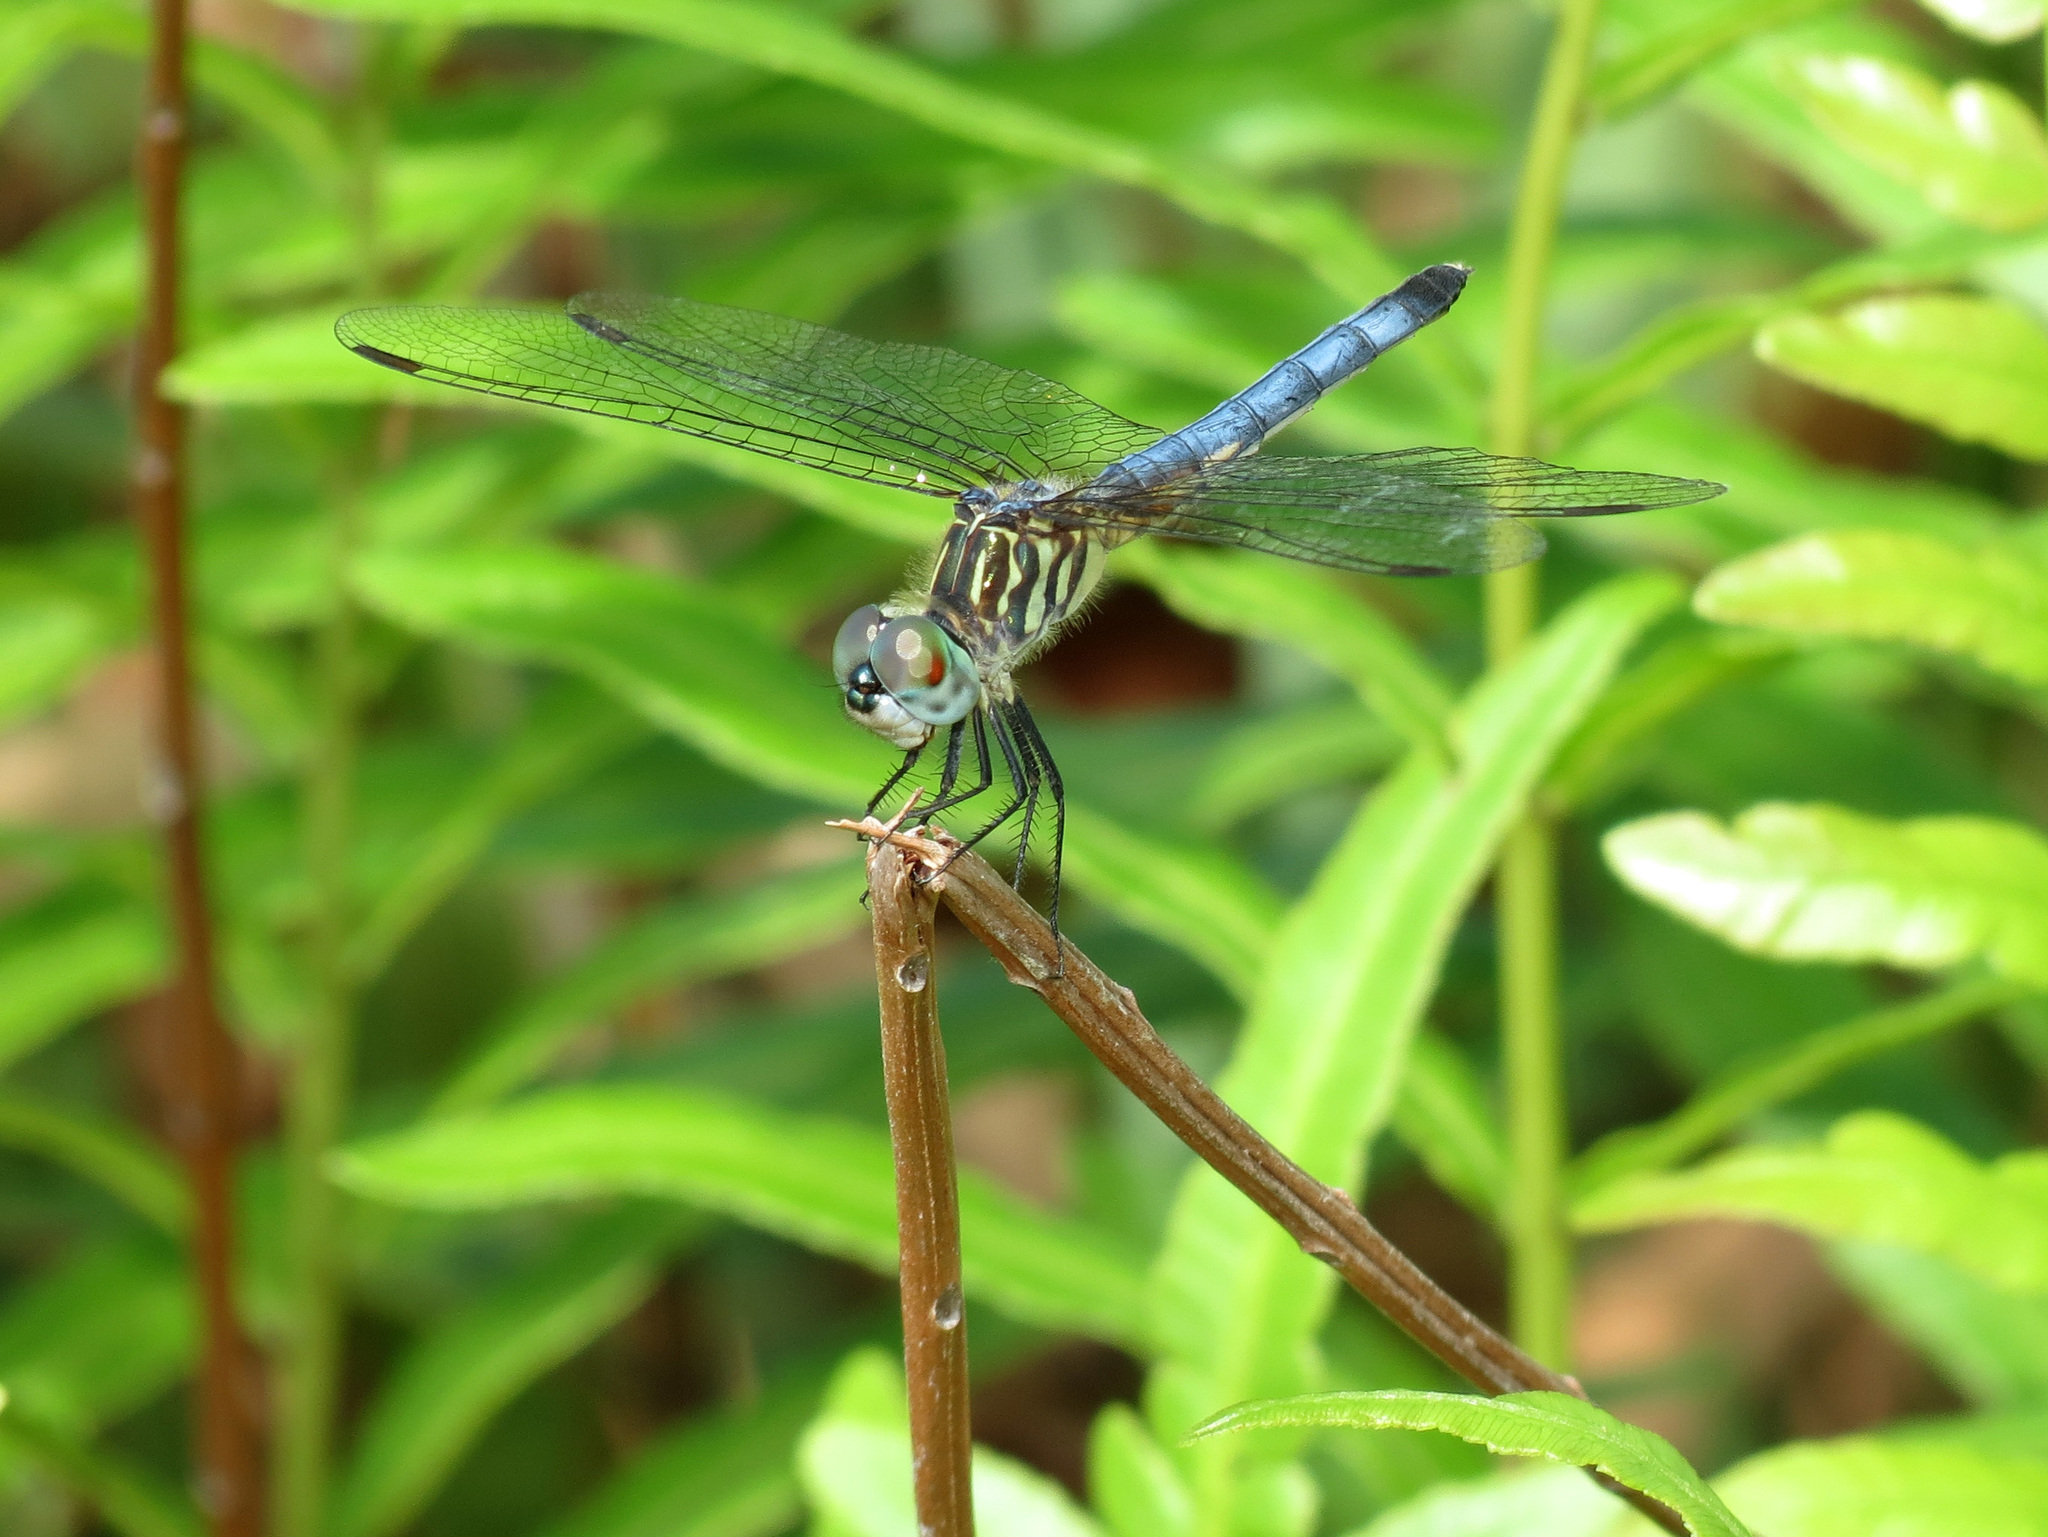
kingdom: Animalia
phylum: Arthropoda
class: Insecta
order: Odonata
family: Libellulidae
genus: Pachydiplax
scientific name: Pachydiplax longipennis
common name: Blue dasher
